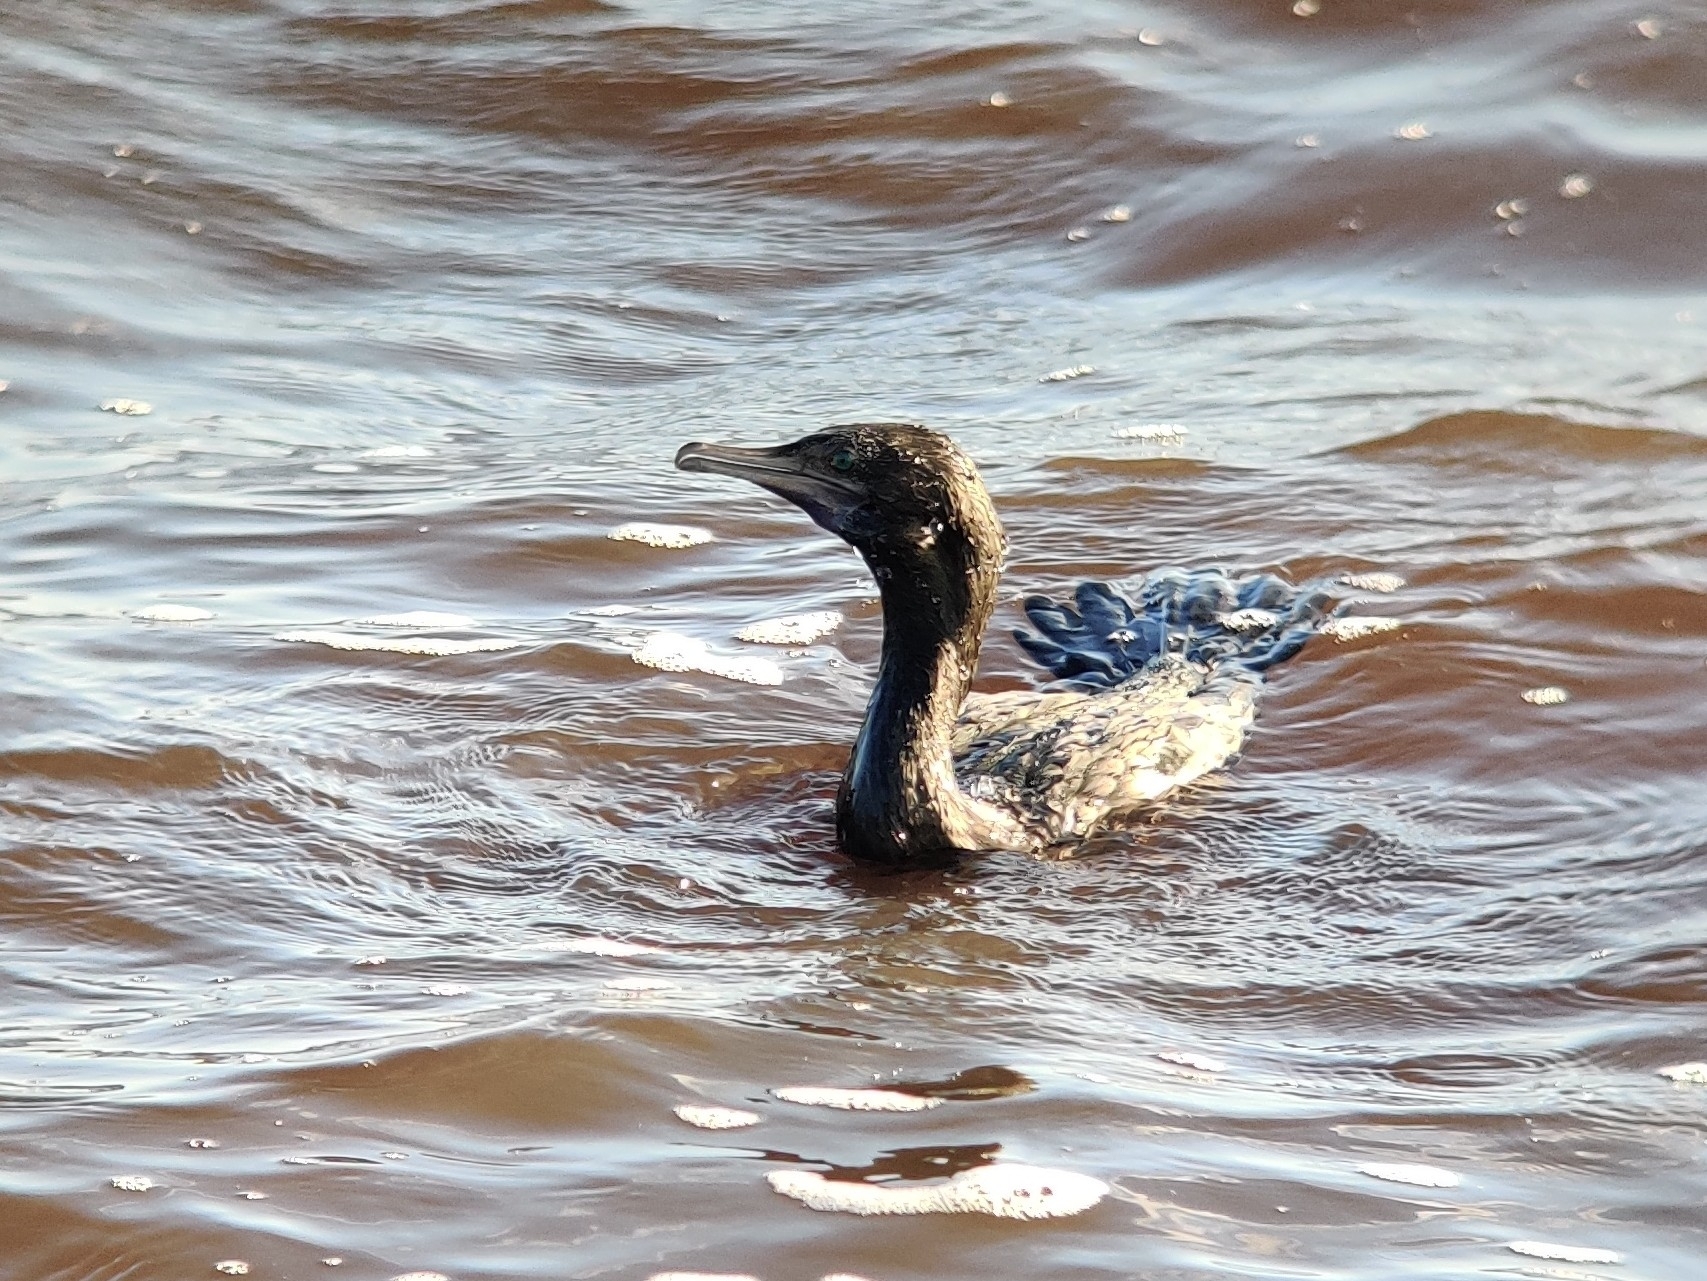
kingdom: Animalia
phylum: Chordata
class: Aves
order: Suliformes
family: Phalacrocoracidae
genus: Phalacrocorax
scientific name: Phalacrocorax sulcirostris
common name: Little black cormorant
